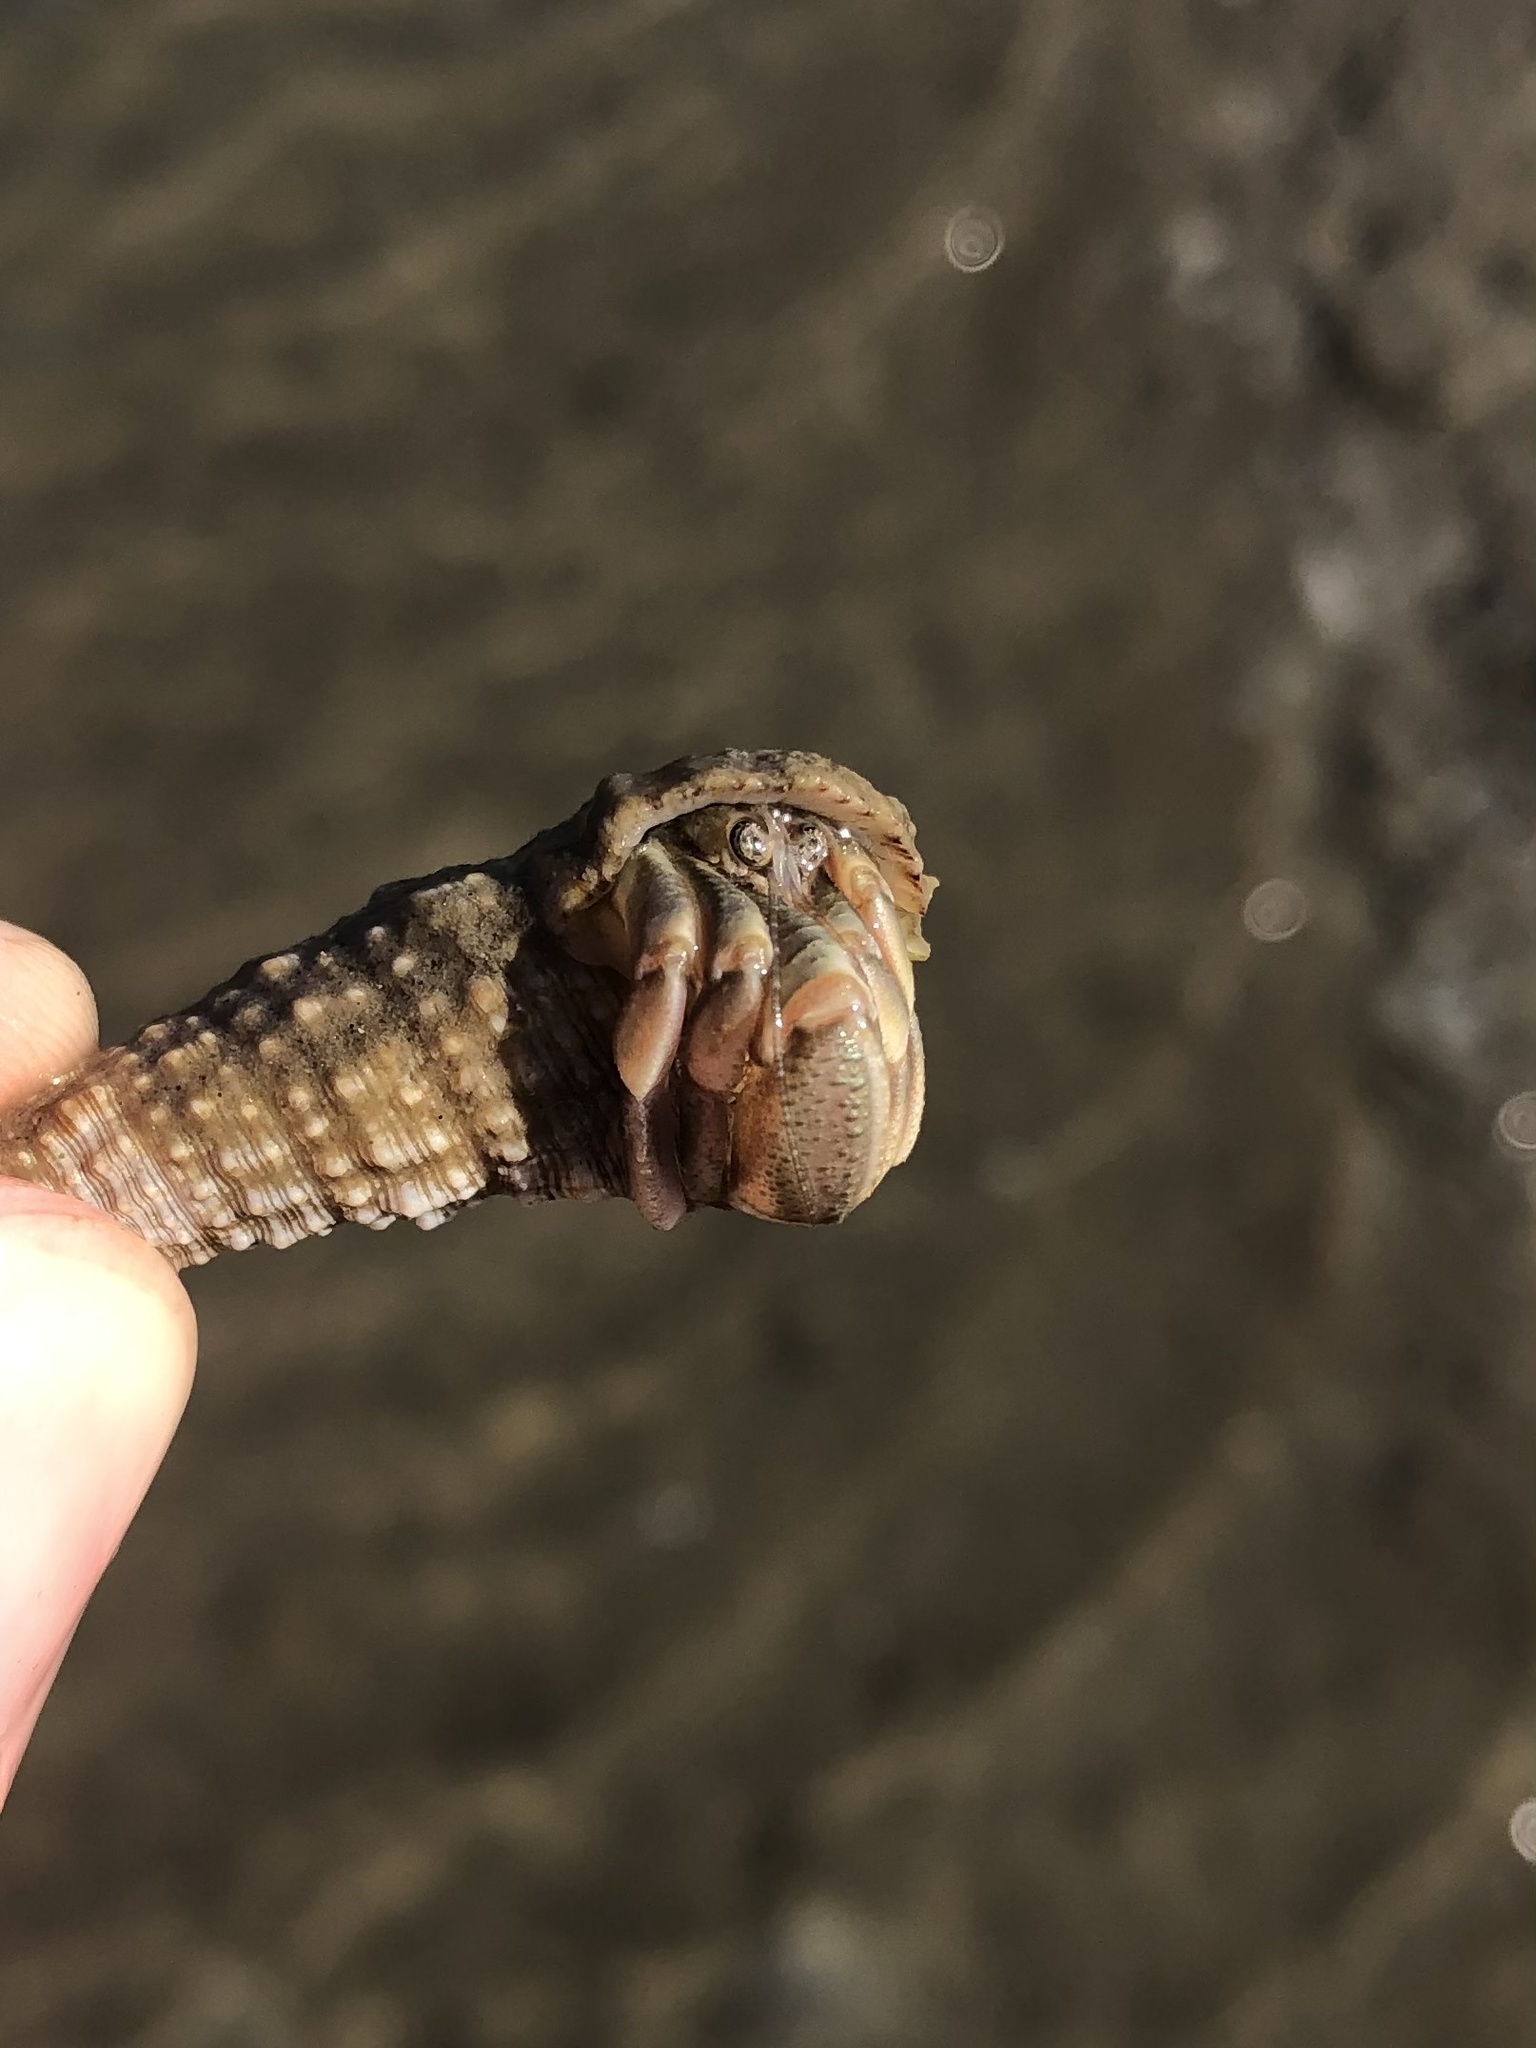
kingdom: Animalia
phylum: Arthropoda
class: Malacostraca
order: Decapoda
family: Paguridae
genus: Pagurus
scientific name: Pagurus longicarpus
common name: Long-armed hermit crab
